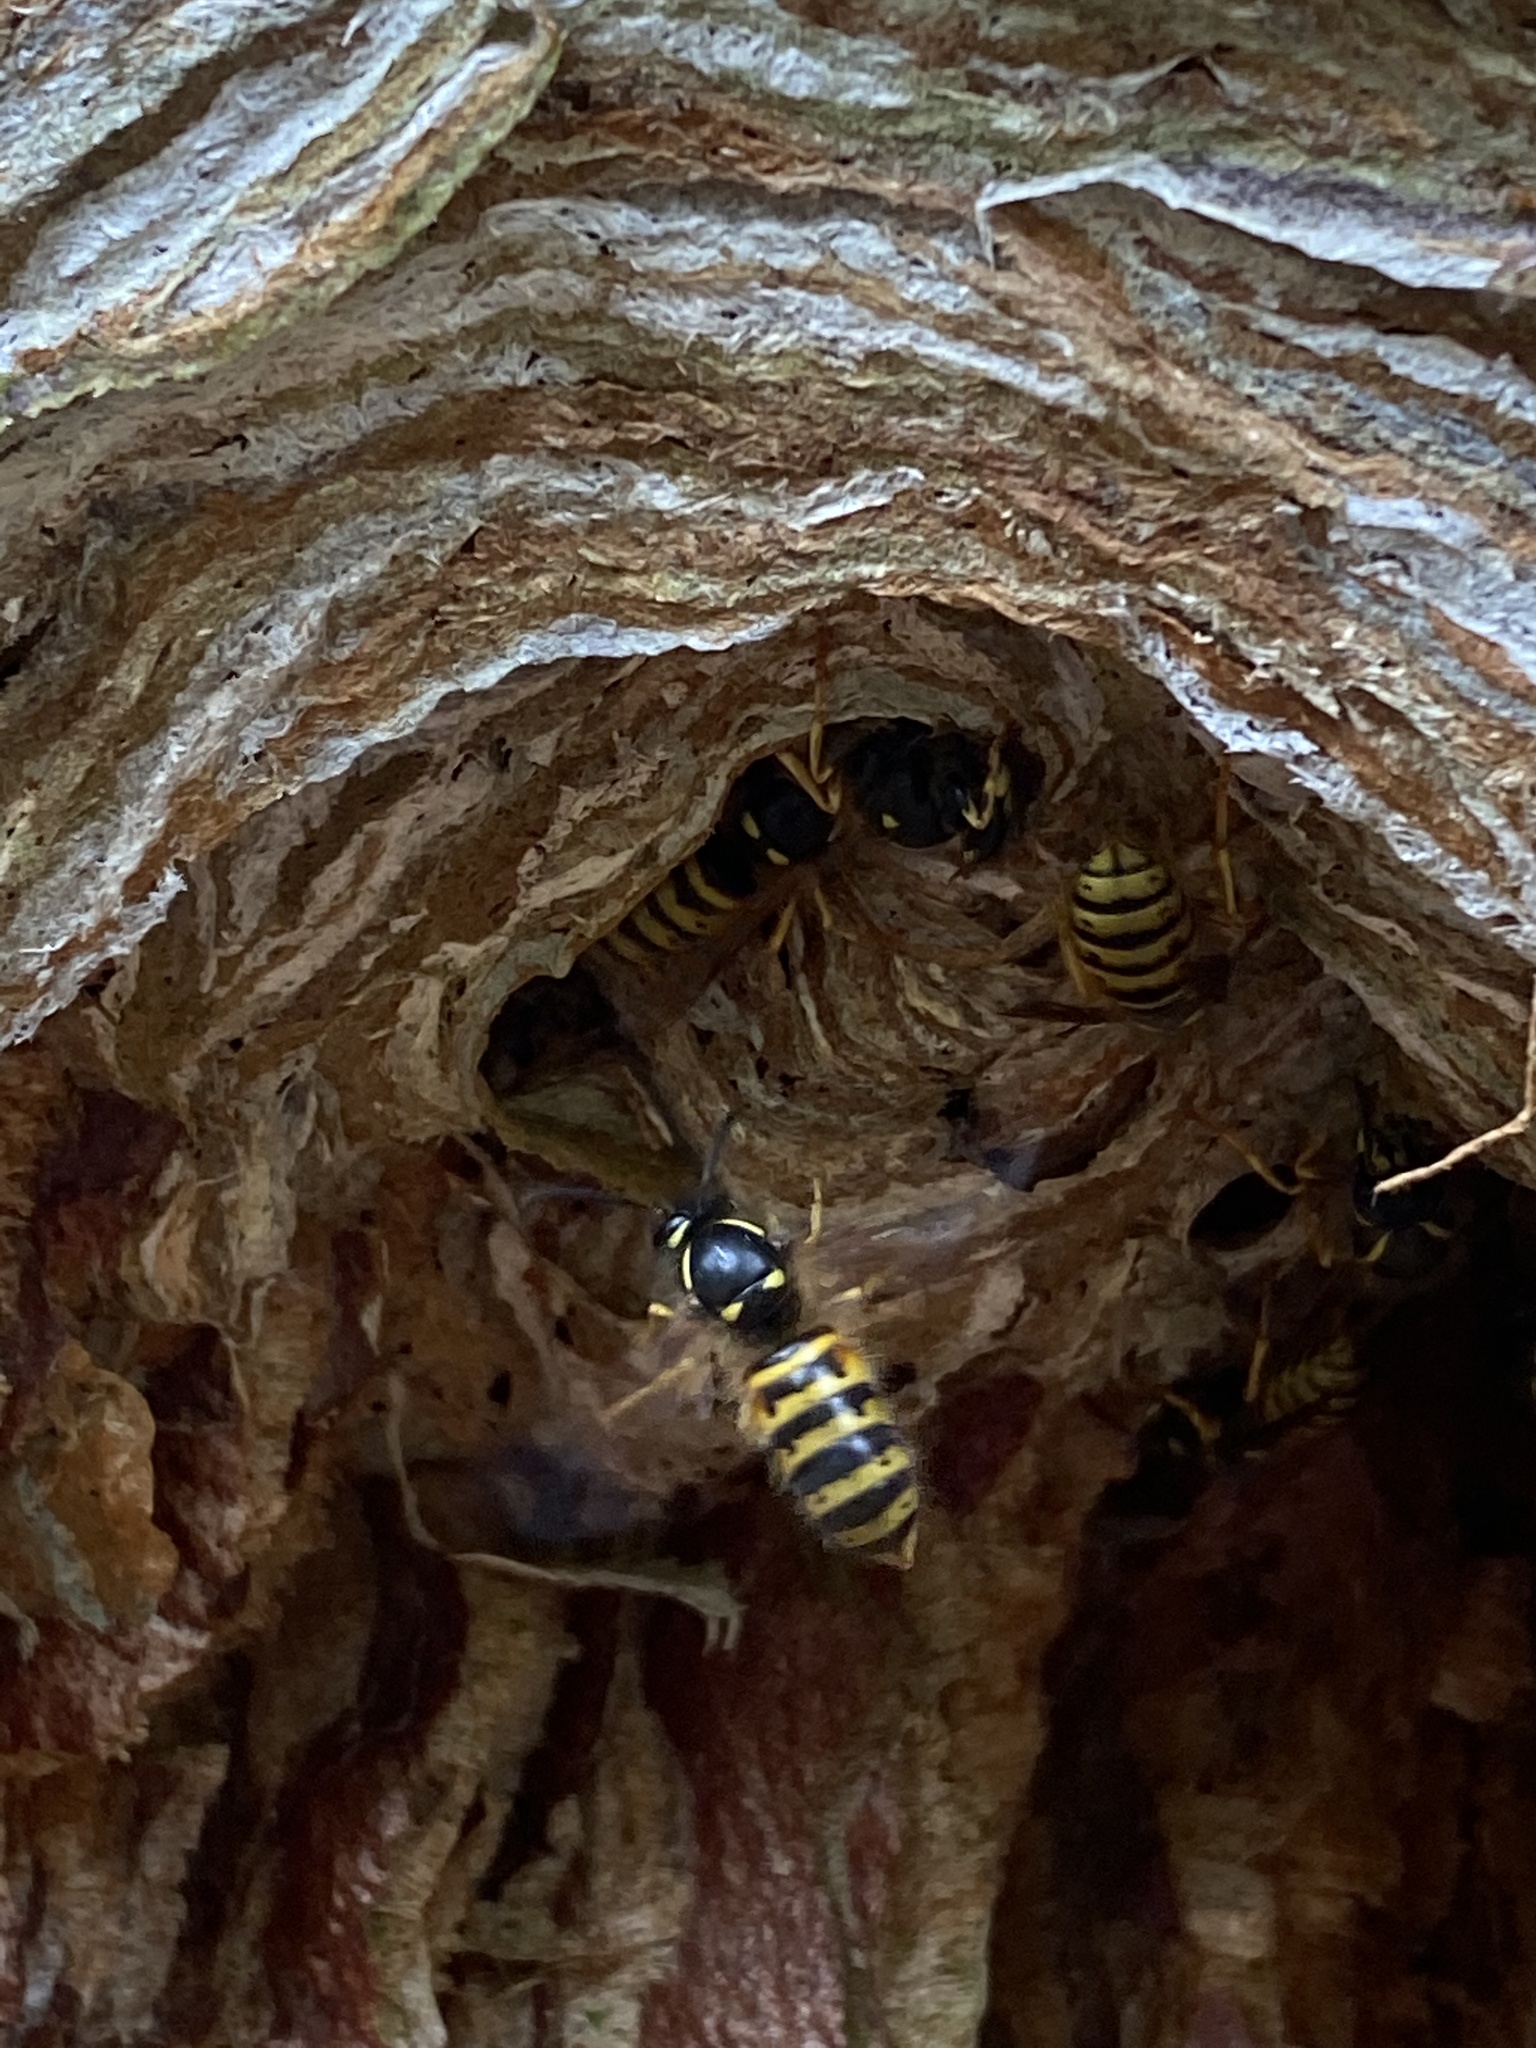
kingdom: Animalia
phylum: Arthropoda
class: Insecta
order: Hymenoptera
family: Vespidae
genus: Dolichovespula
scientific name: Dolichovespula norwegica
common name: Norwegian wasp
